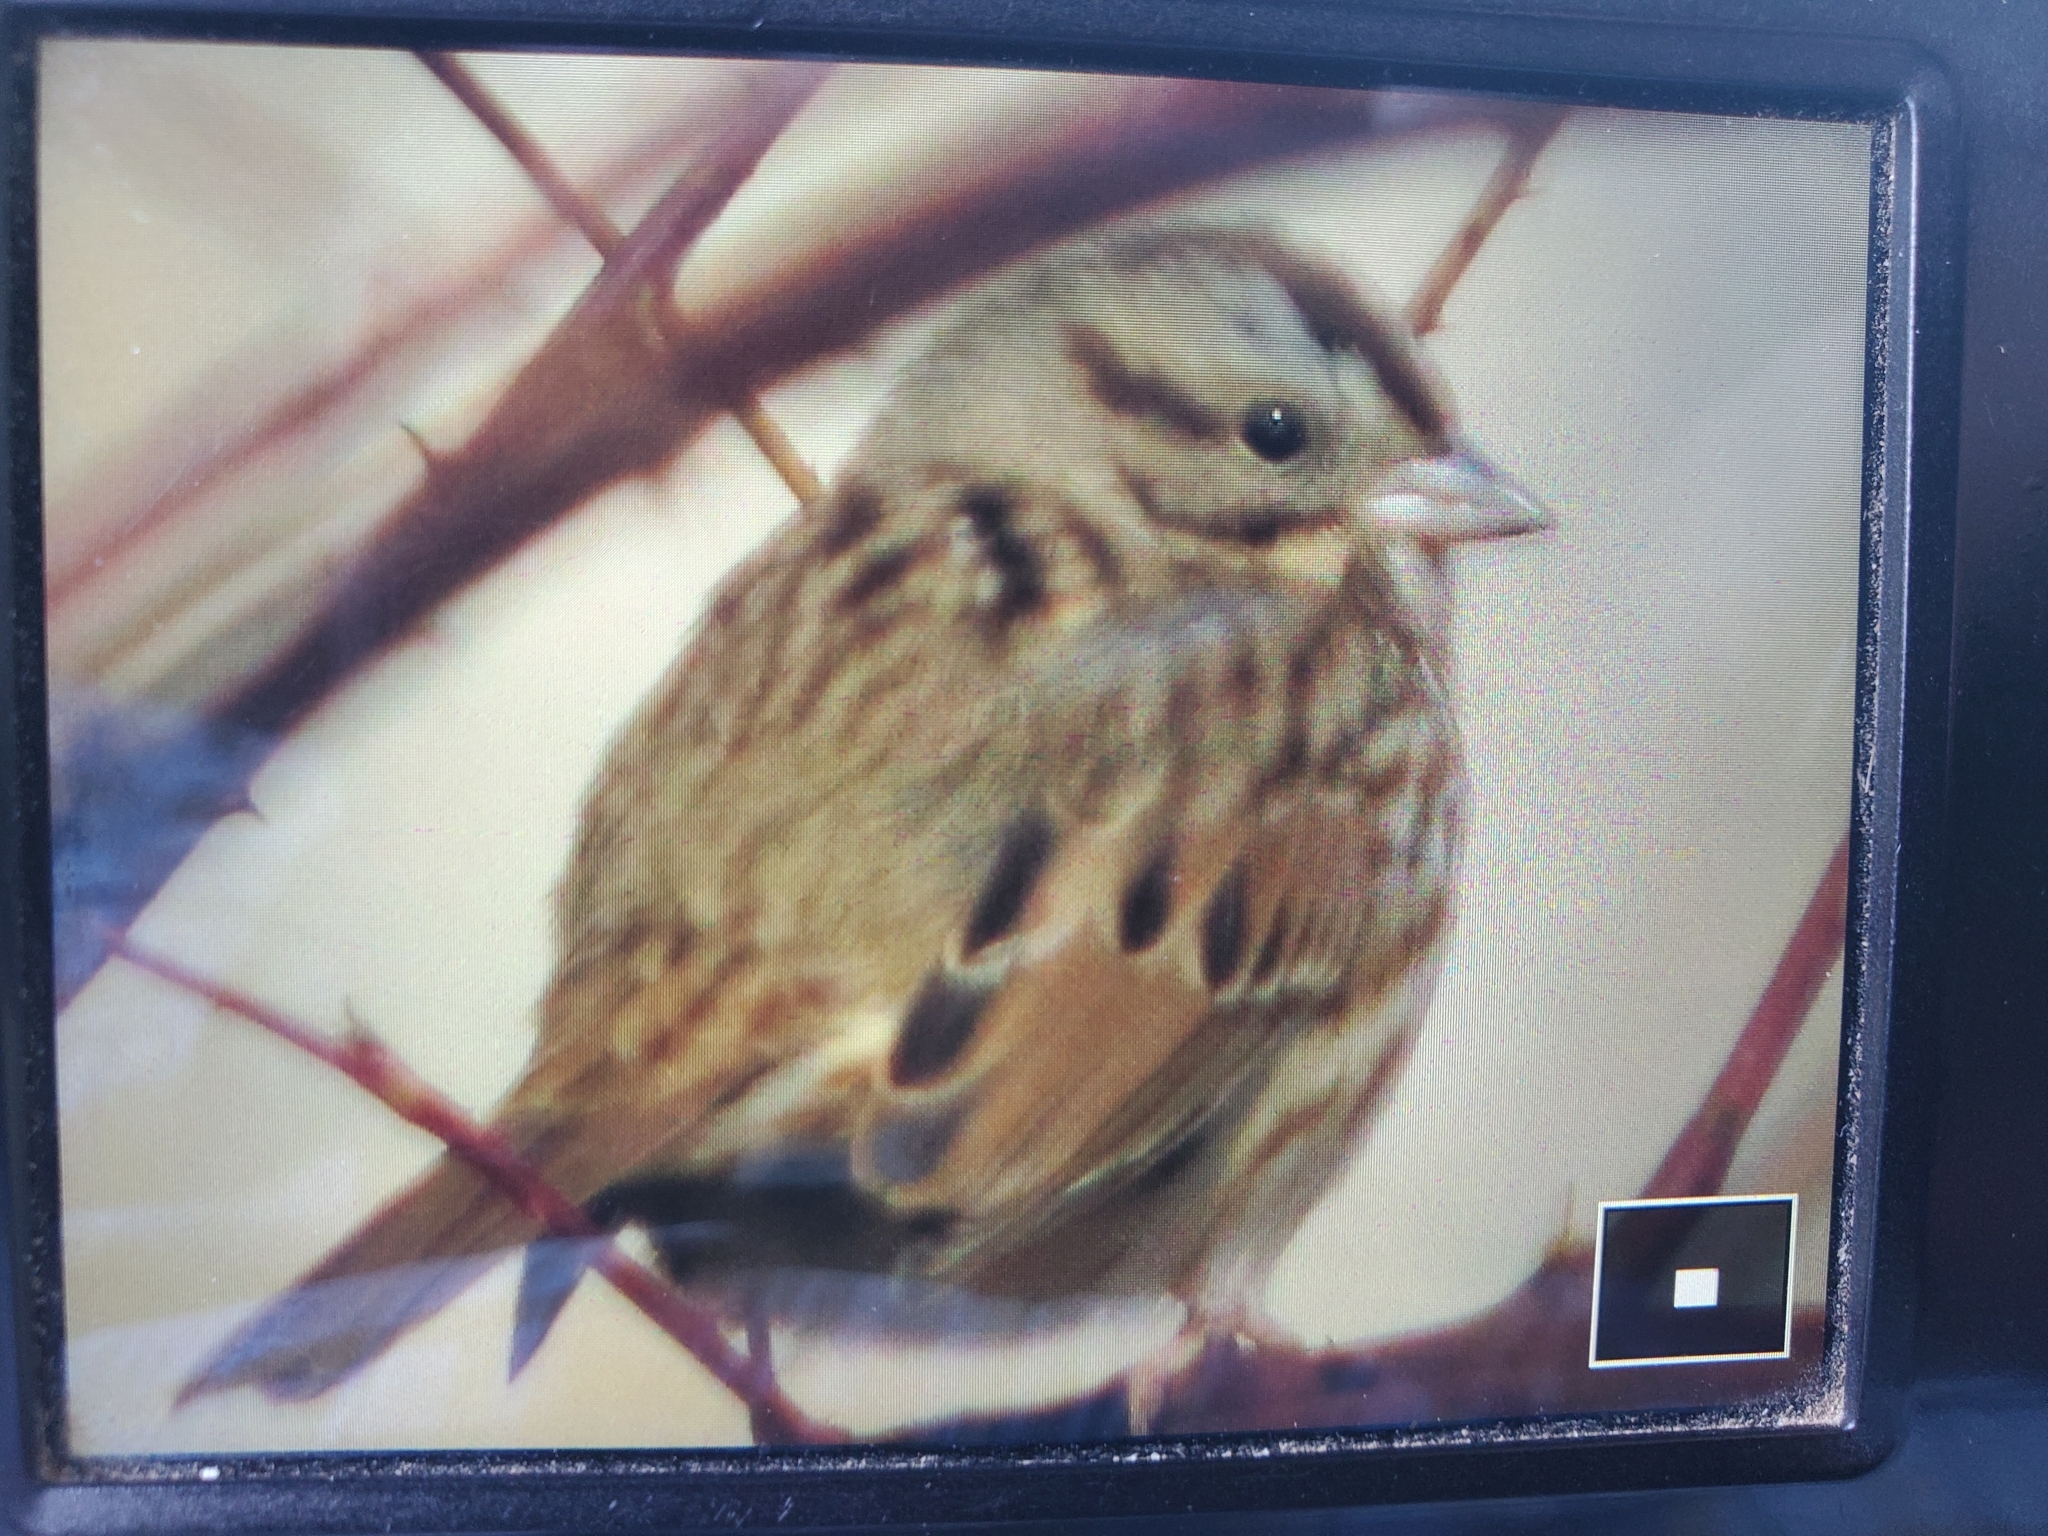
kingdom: Animalia
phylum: Chordata
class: Aves
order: Passeriformes
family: Passerellidae
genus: Melospiza
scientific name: Melospiza melodia
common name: Song sparrow
